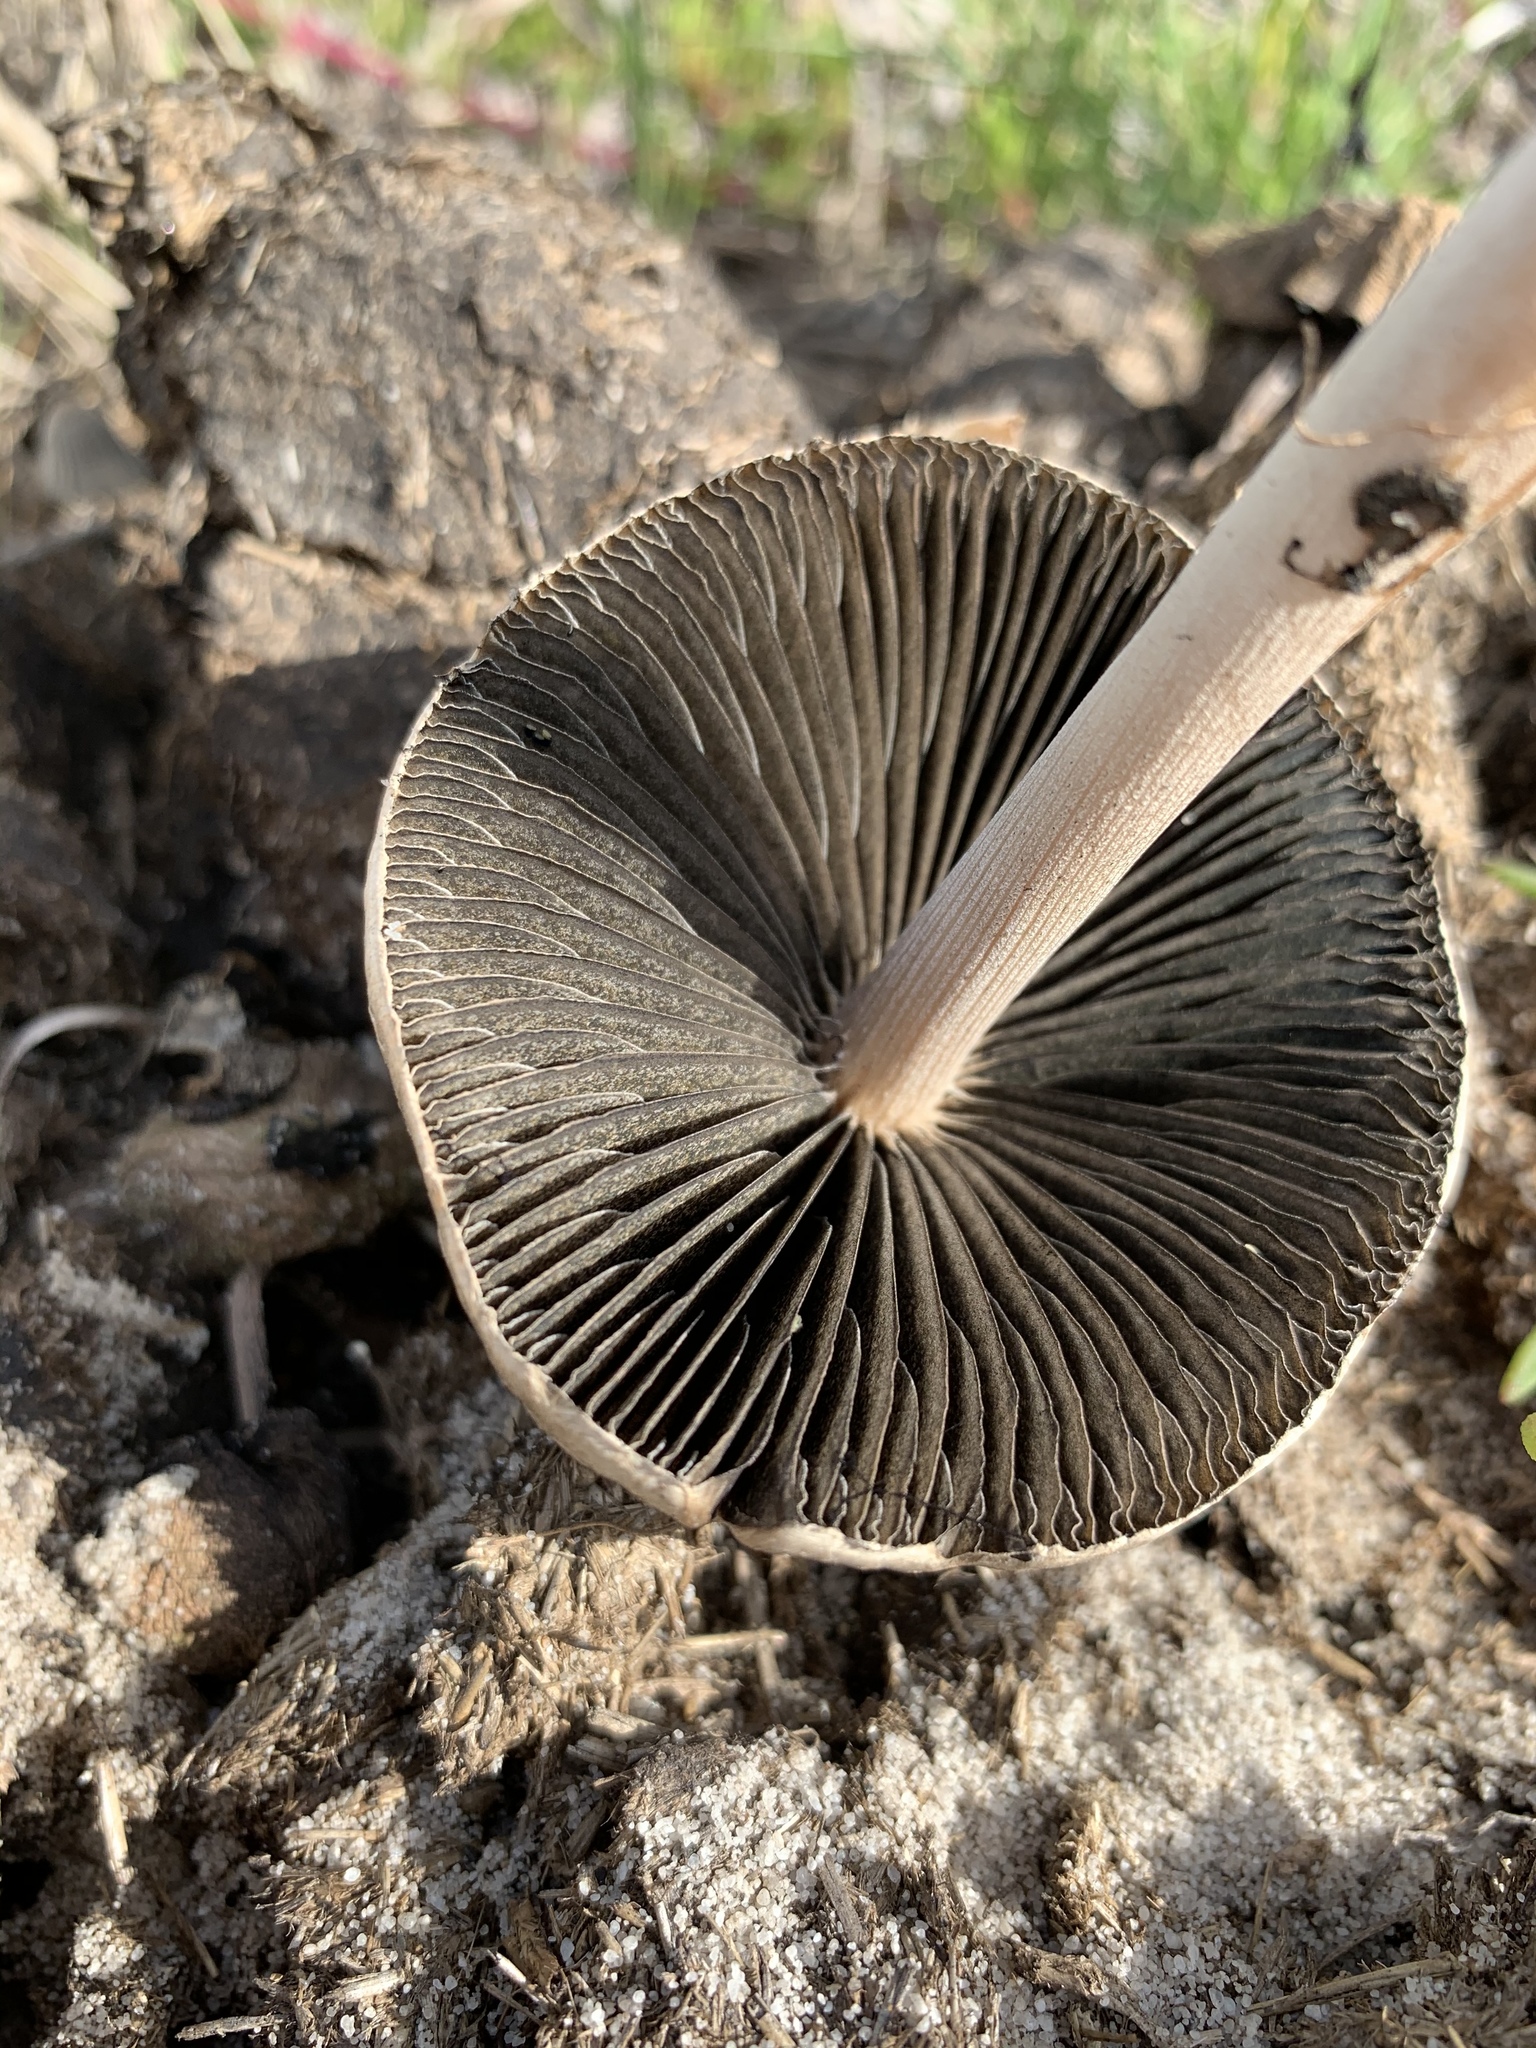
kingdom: Fungi
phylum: Basidiomycota
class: Agaricomycetes
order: Agaricales
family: Bolbitiaceae
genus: Panaeolus
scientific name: Panaeolus antillarum
